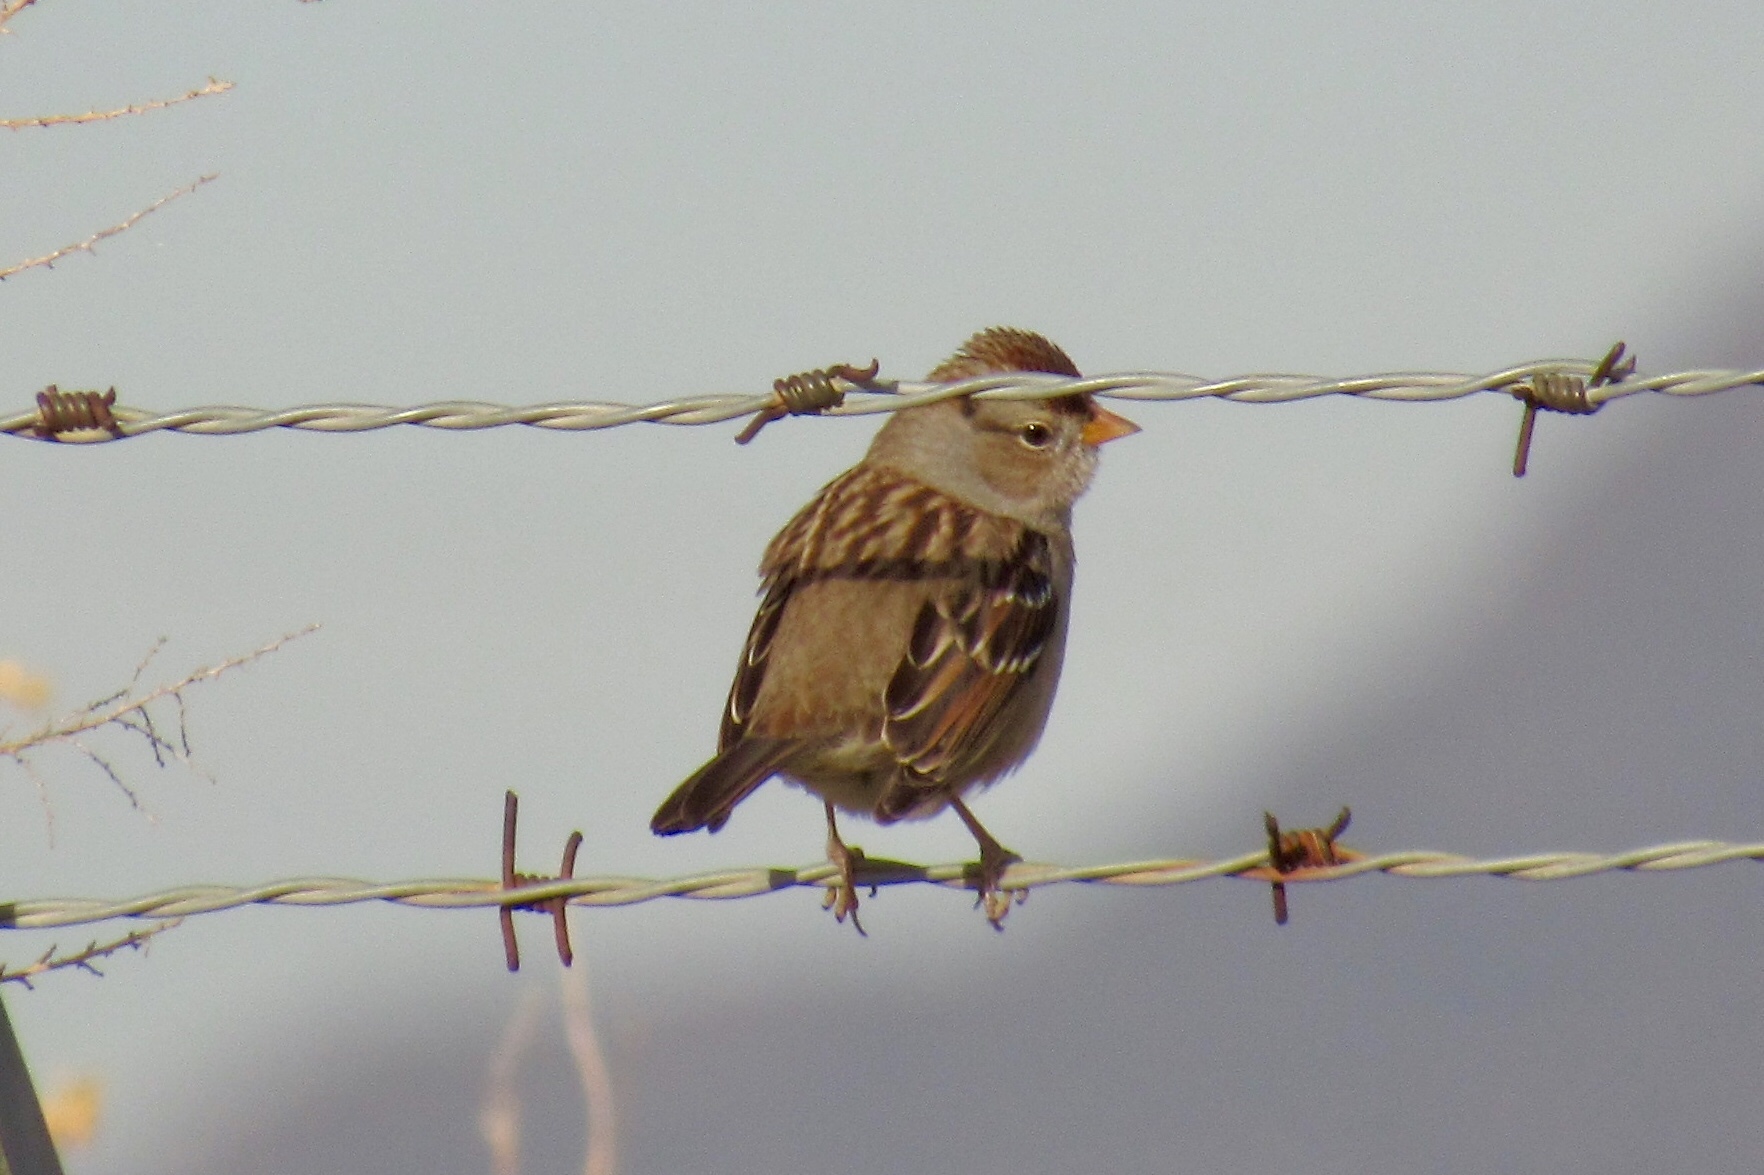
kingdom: Animalia
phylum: Chordata
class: Aves
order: Passeriformes
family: Passerellidae
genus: Zonotrichia
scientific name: Zonotrichia leucophrys
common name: White-crowned sparrow
